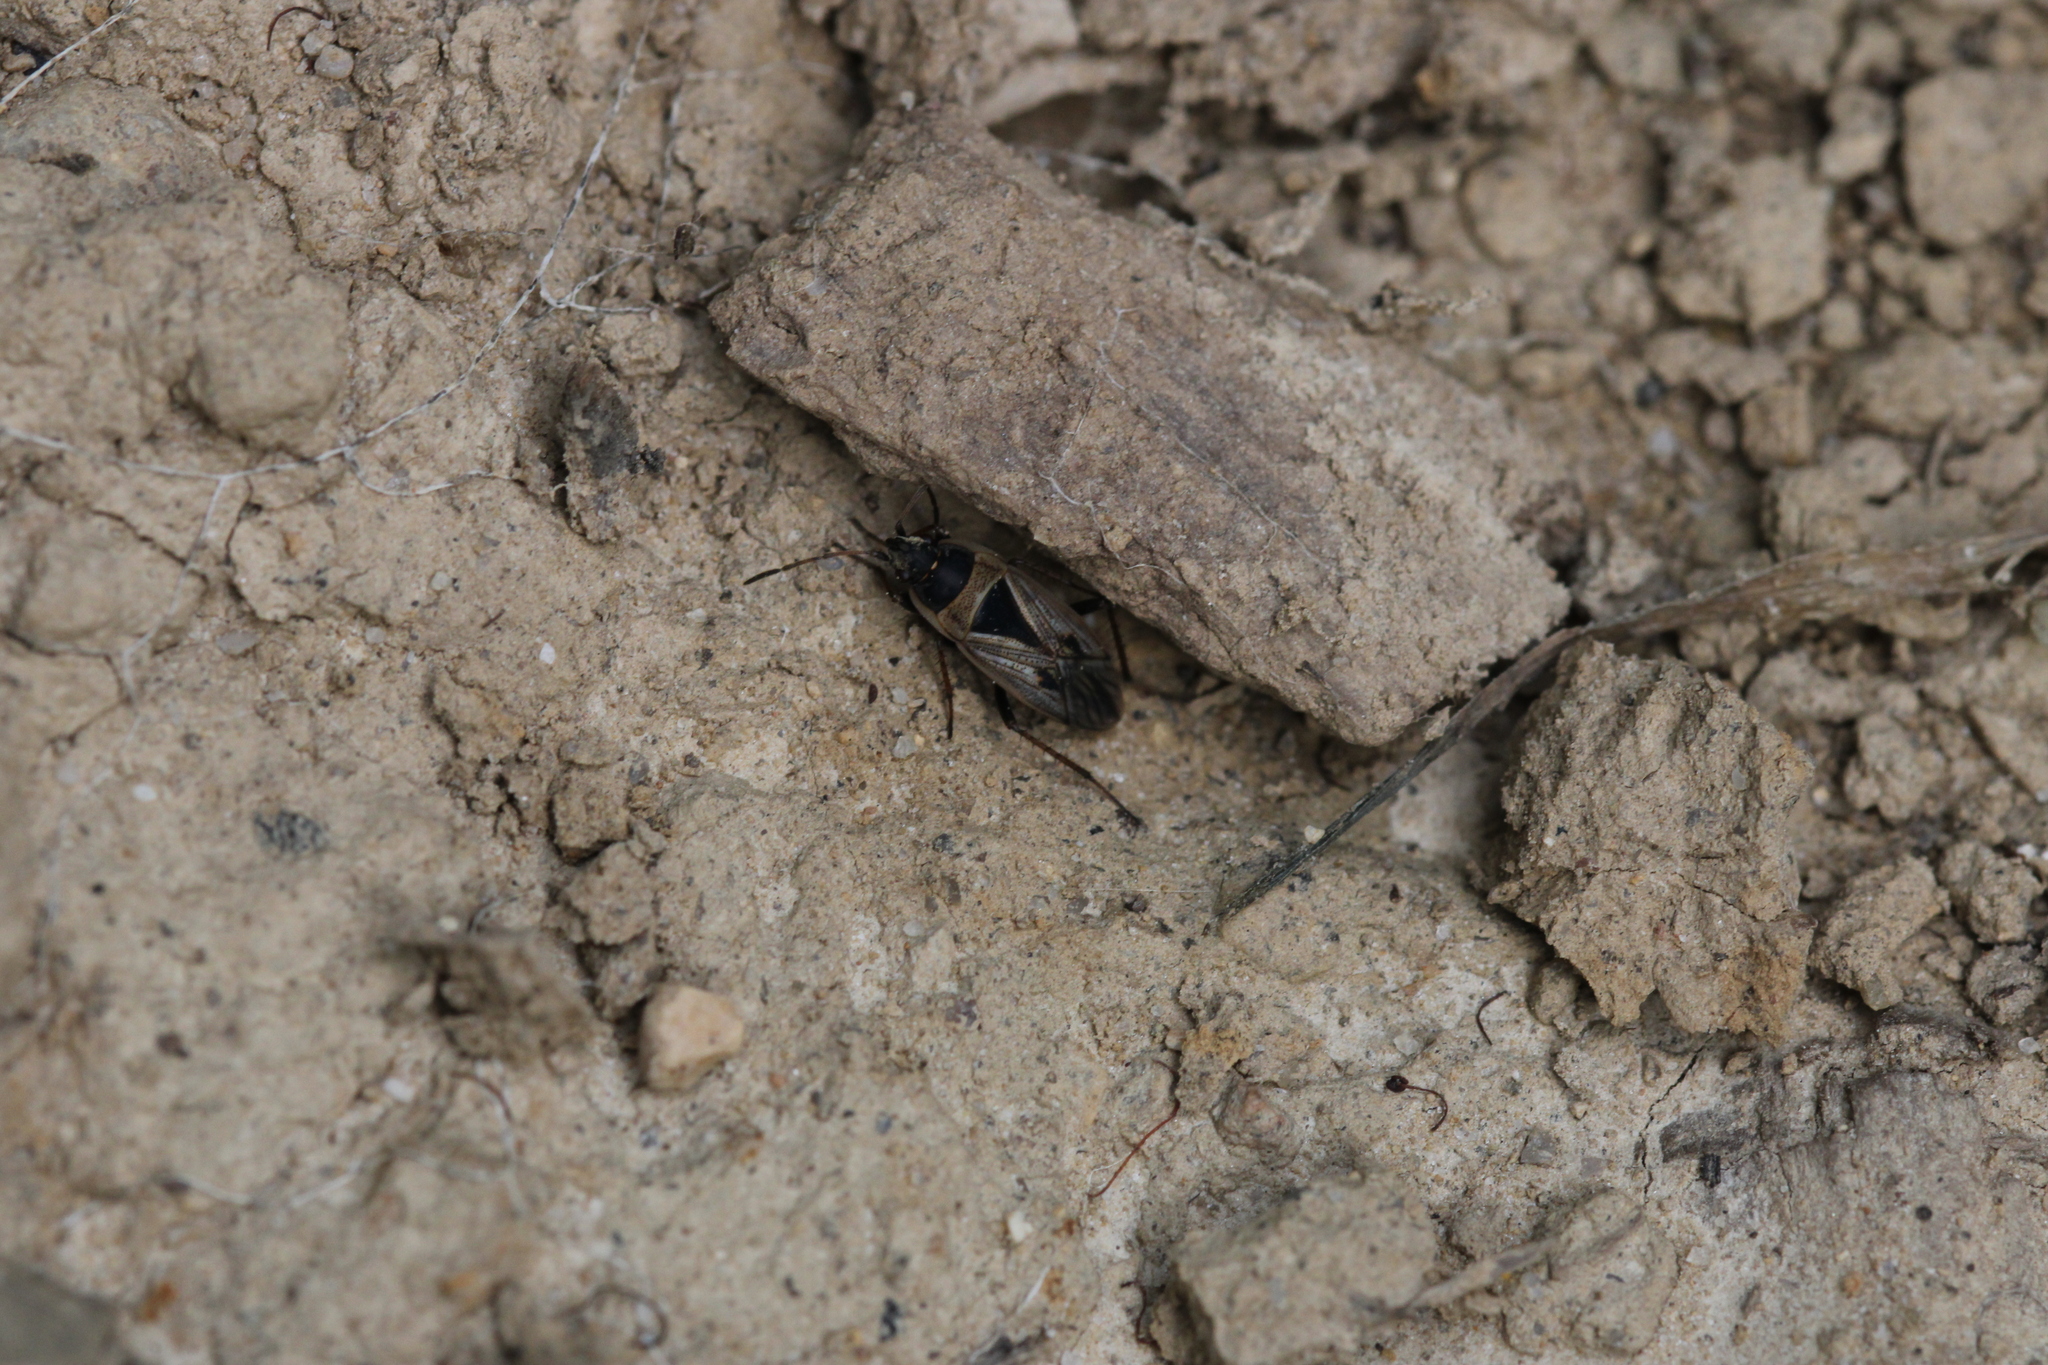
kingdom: Animalia
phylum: Arthropoda
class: Insecta
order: Hemiptera
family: Rhyparochromidae
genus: Xanthochilus
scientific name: Xanthochilus quadratus
